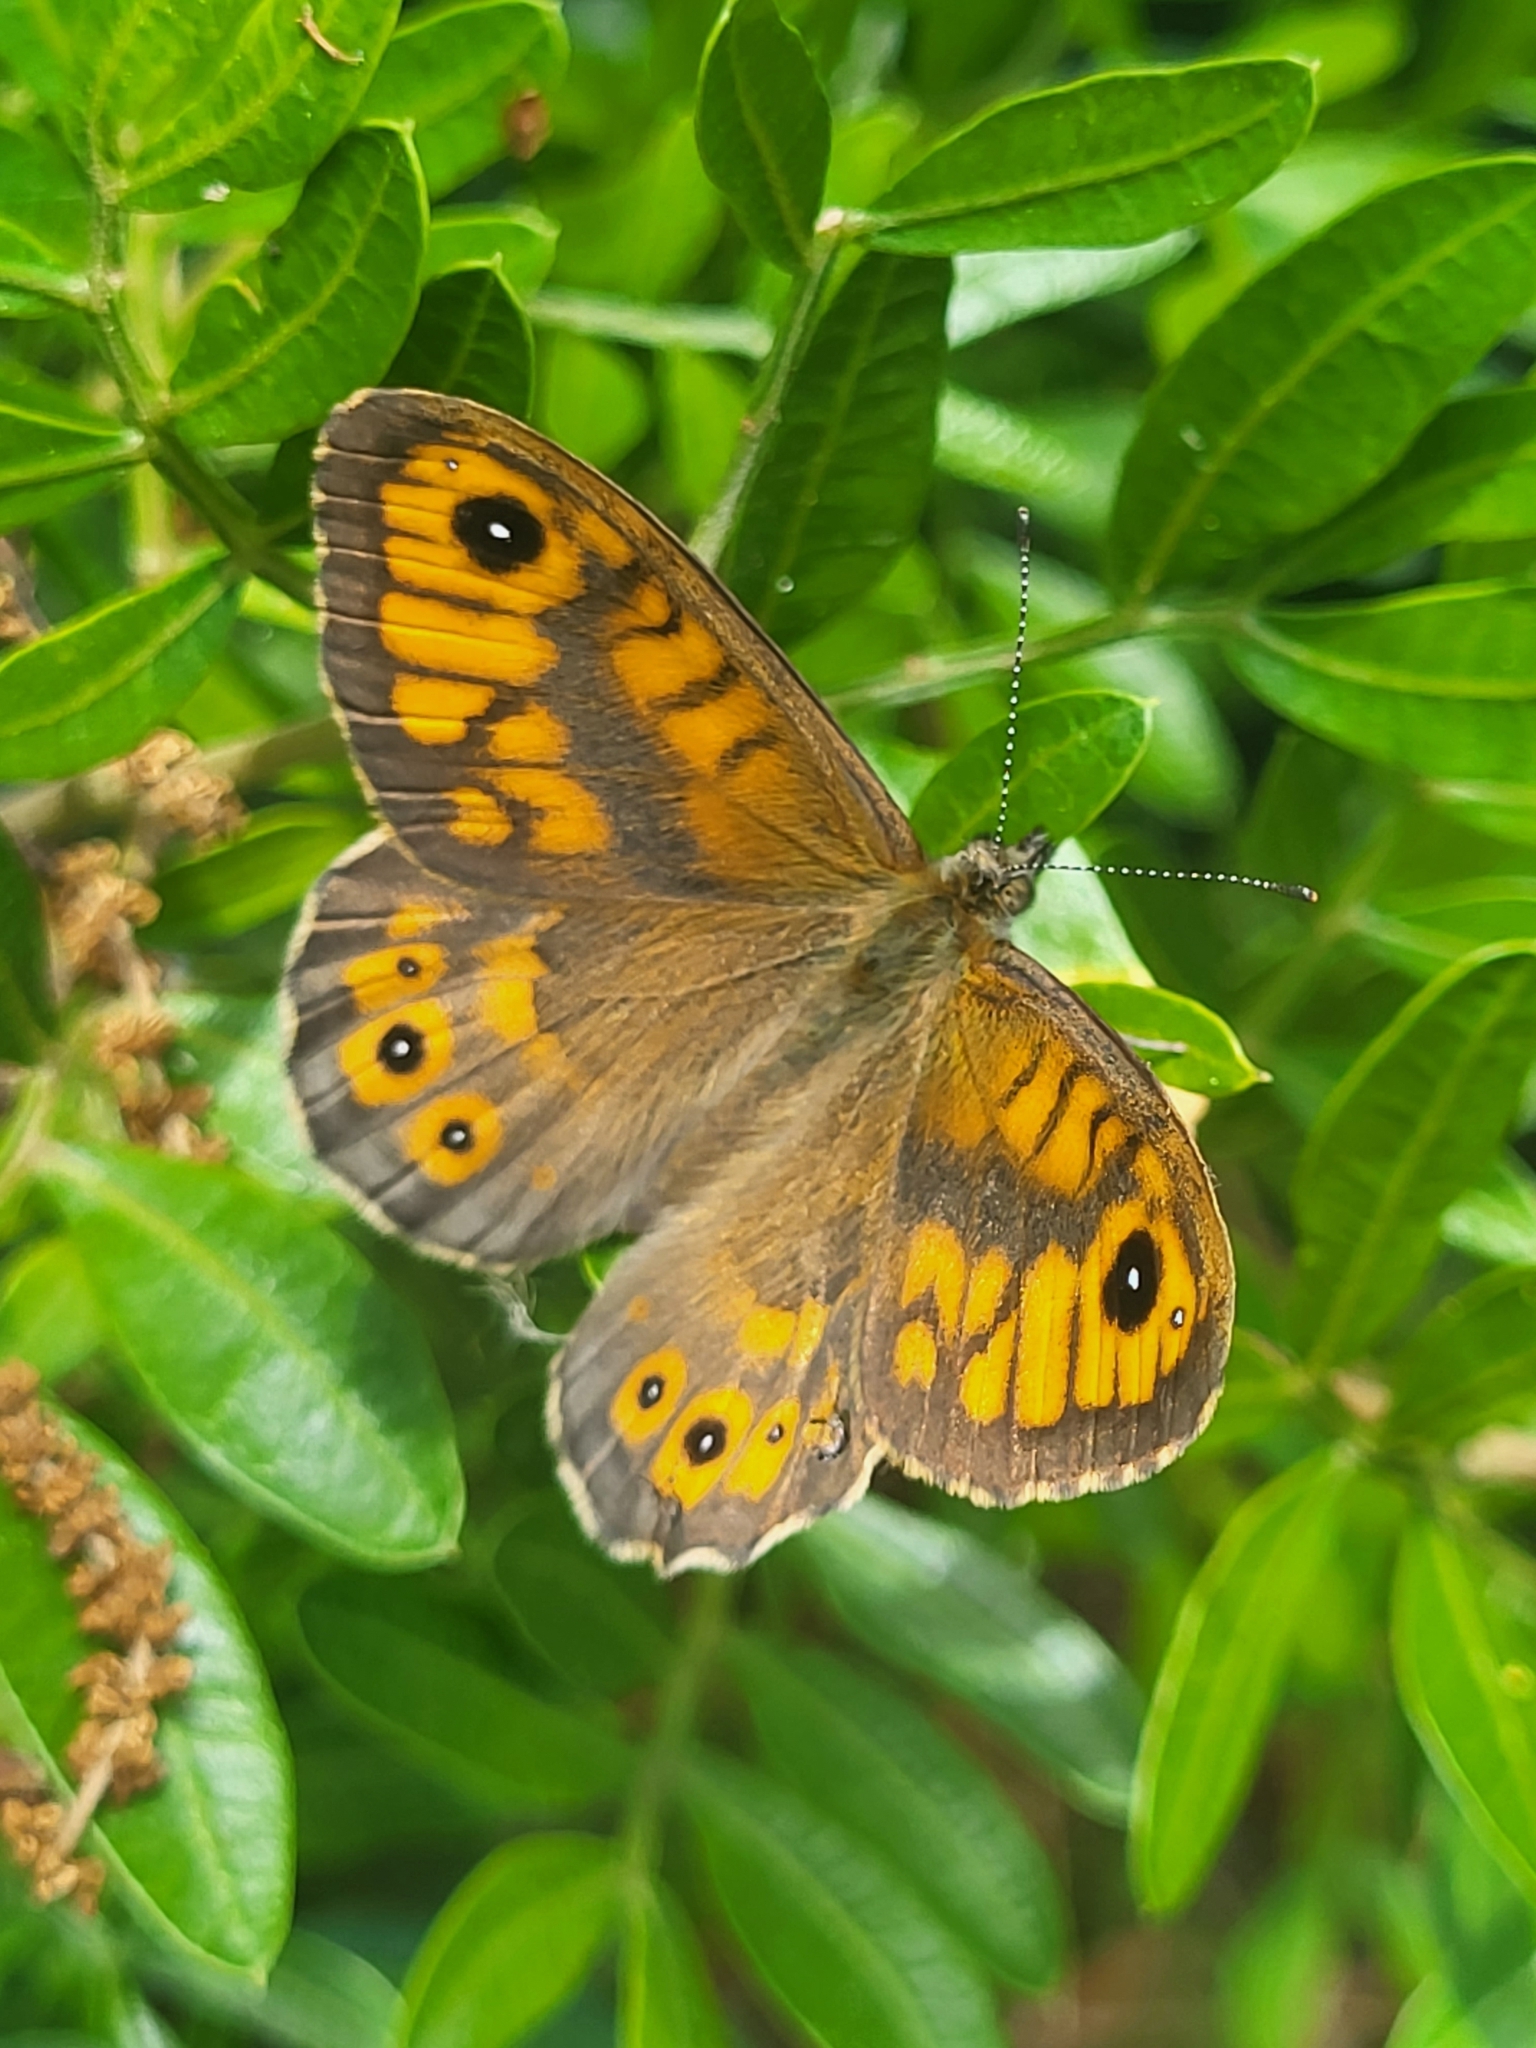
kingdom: Animalia
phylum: Arthropoda
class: Insecta
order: Lepidoptera
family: Nymphalidae
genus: Pararge
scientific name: Pararge Lasiommata megera
